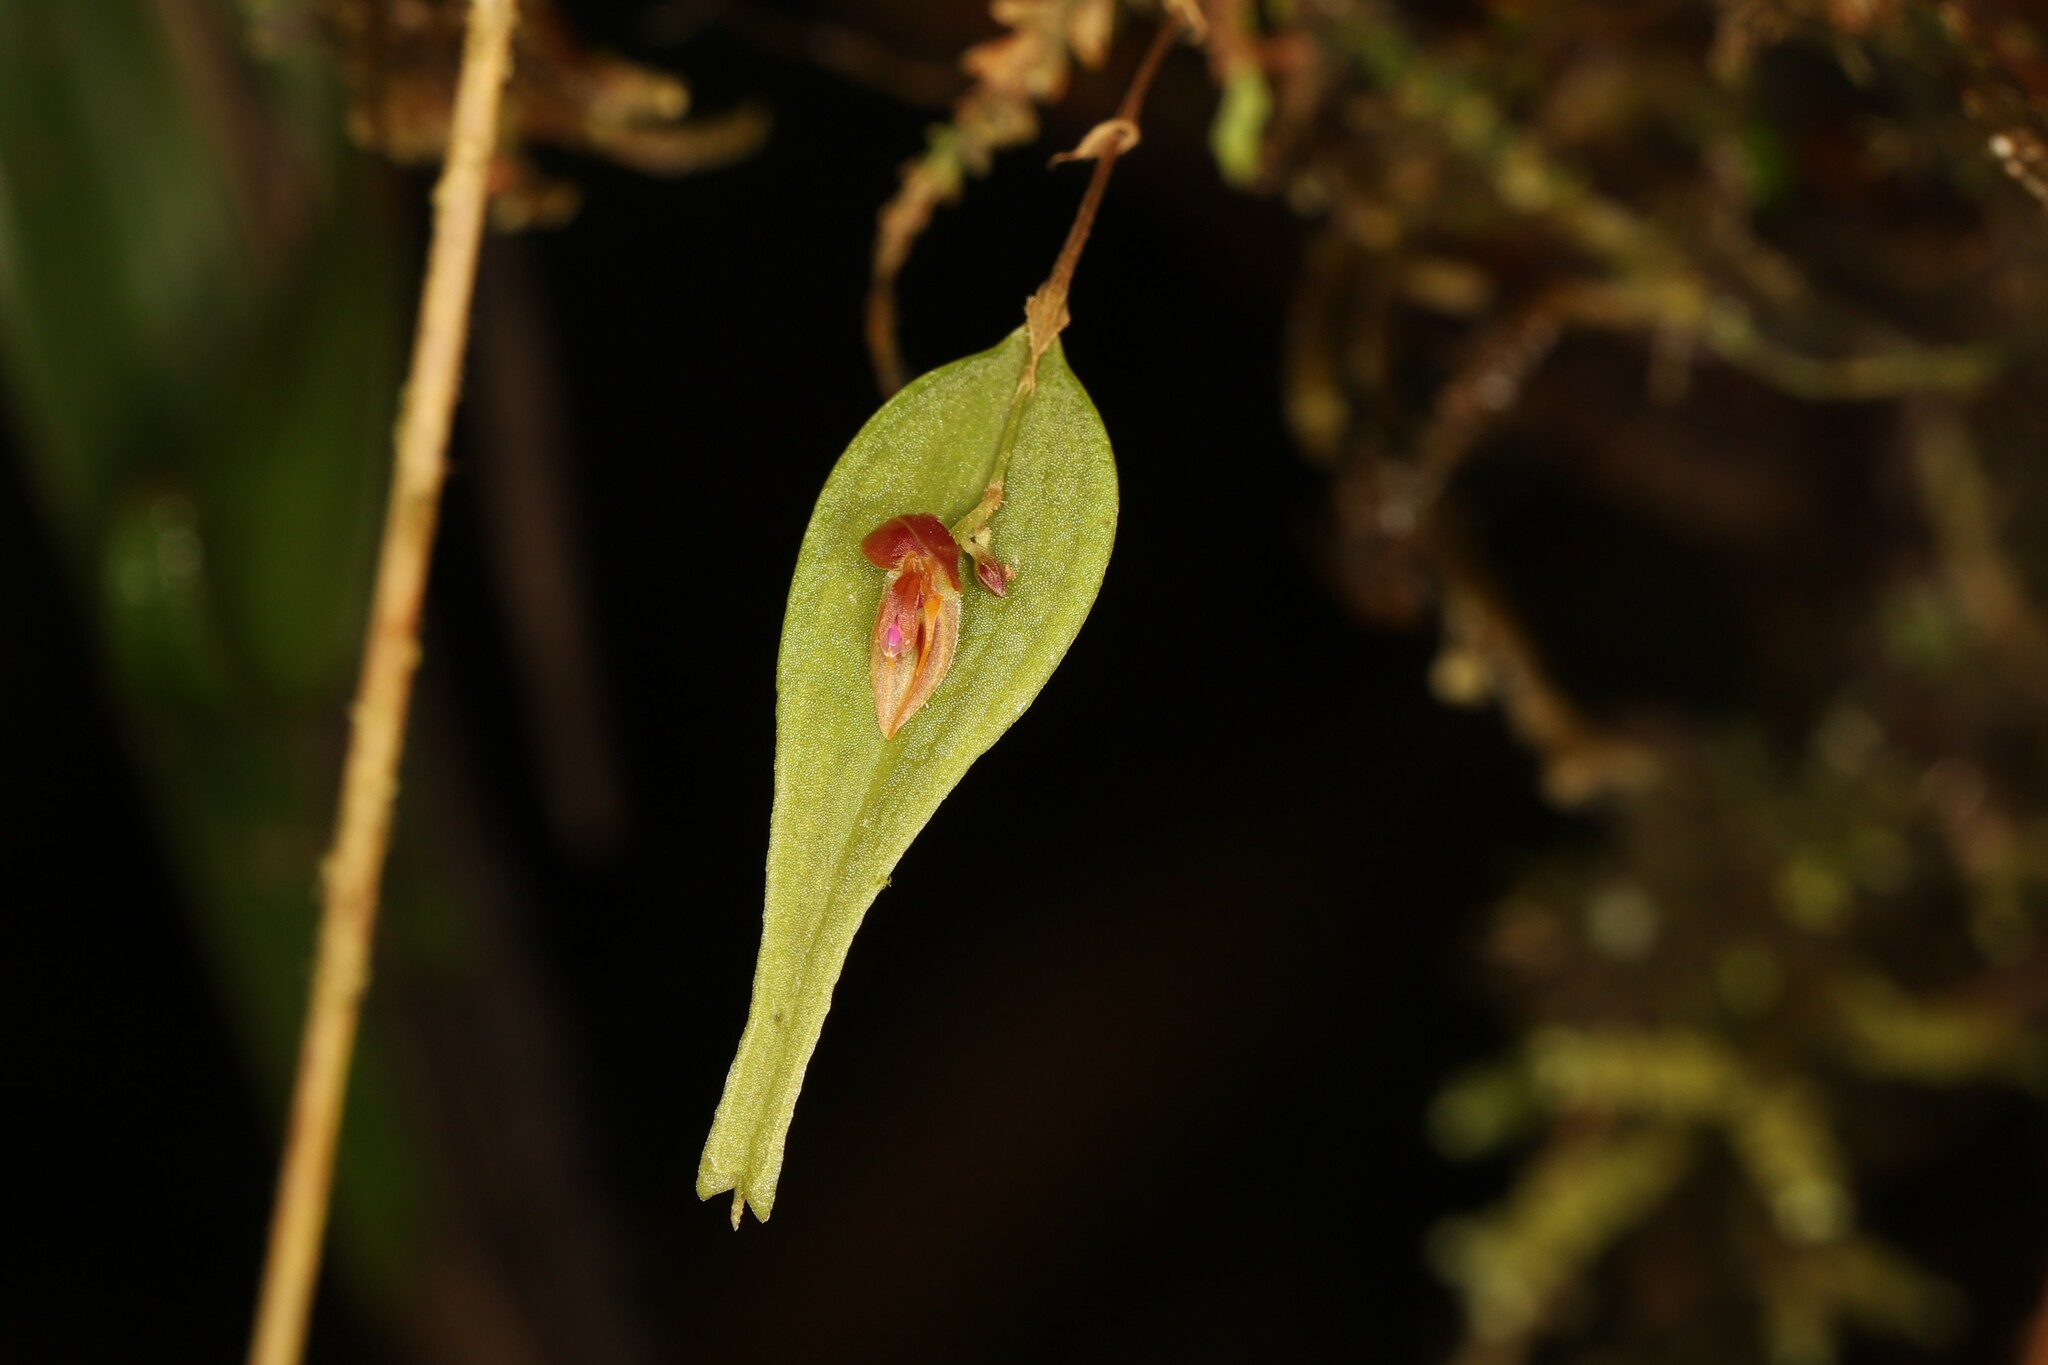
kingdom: Plantae
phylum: Tracheophyta
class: Liliopsida
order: Asparagales
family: Orchidaceae
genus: Lepanthes
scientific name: Lepanthes satyrica
